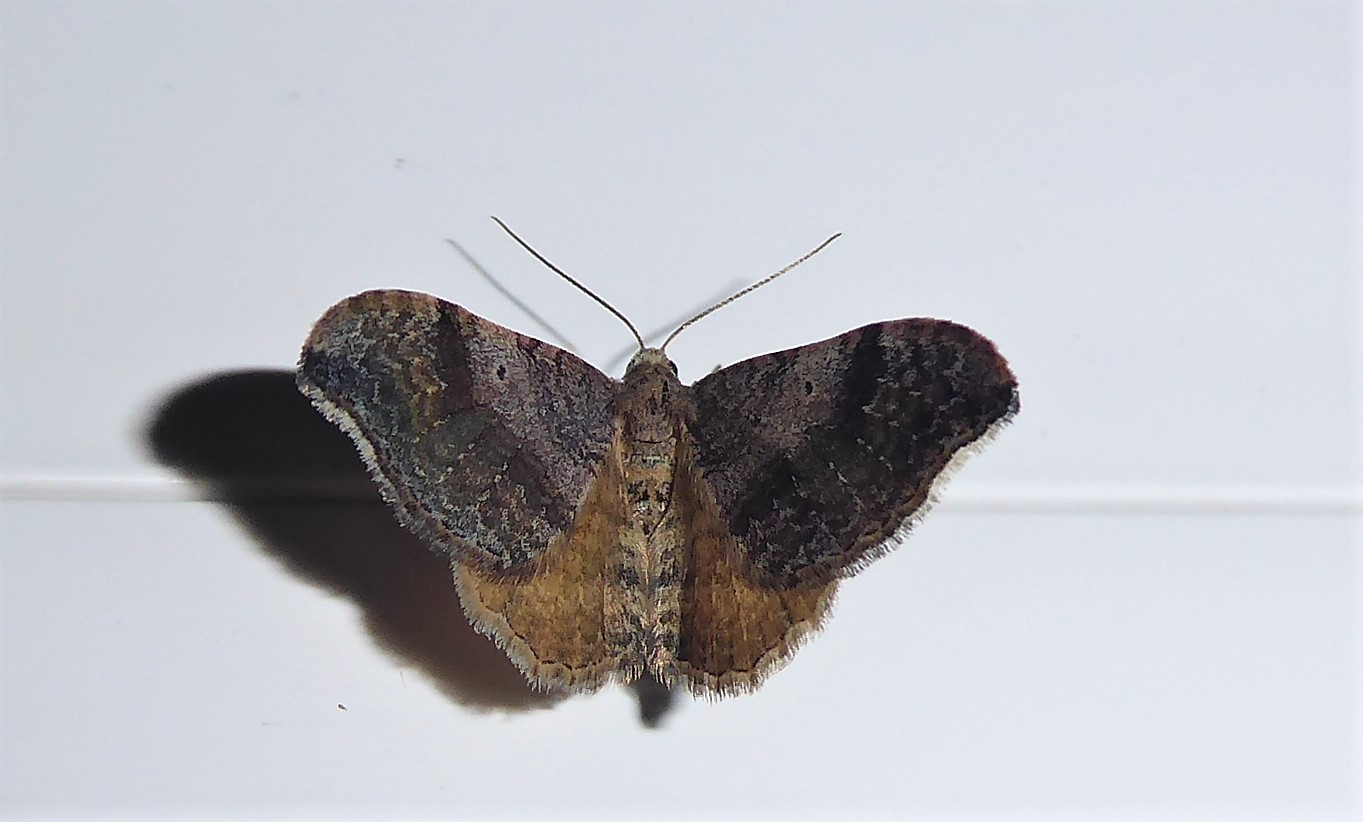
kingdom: Animalia
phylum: Arthropoda
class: Insecta
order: Lepidoptera
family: Geometridae
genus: Homodotis
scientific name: Homodotis megaspilata
